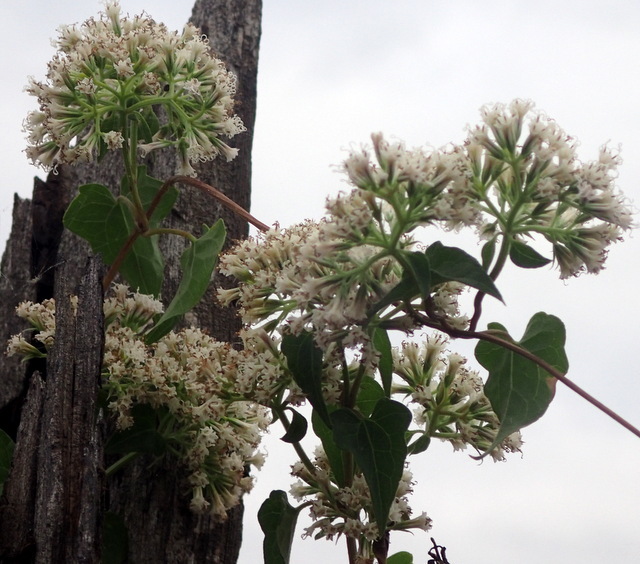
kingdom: Plantae
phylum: Tracheophyta
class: Magnoliopsida
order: Asterales
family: Asteraceae
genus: Mikania
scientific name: Mikania scandens
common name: Climbing hempvine
